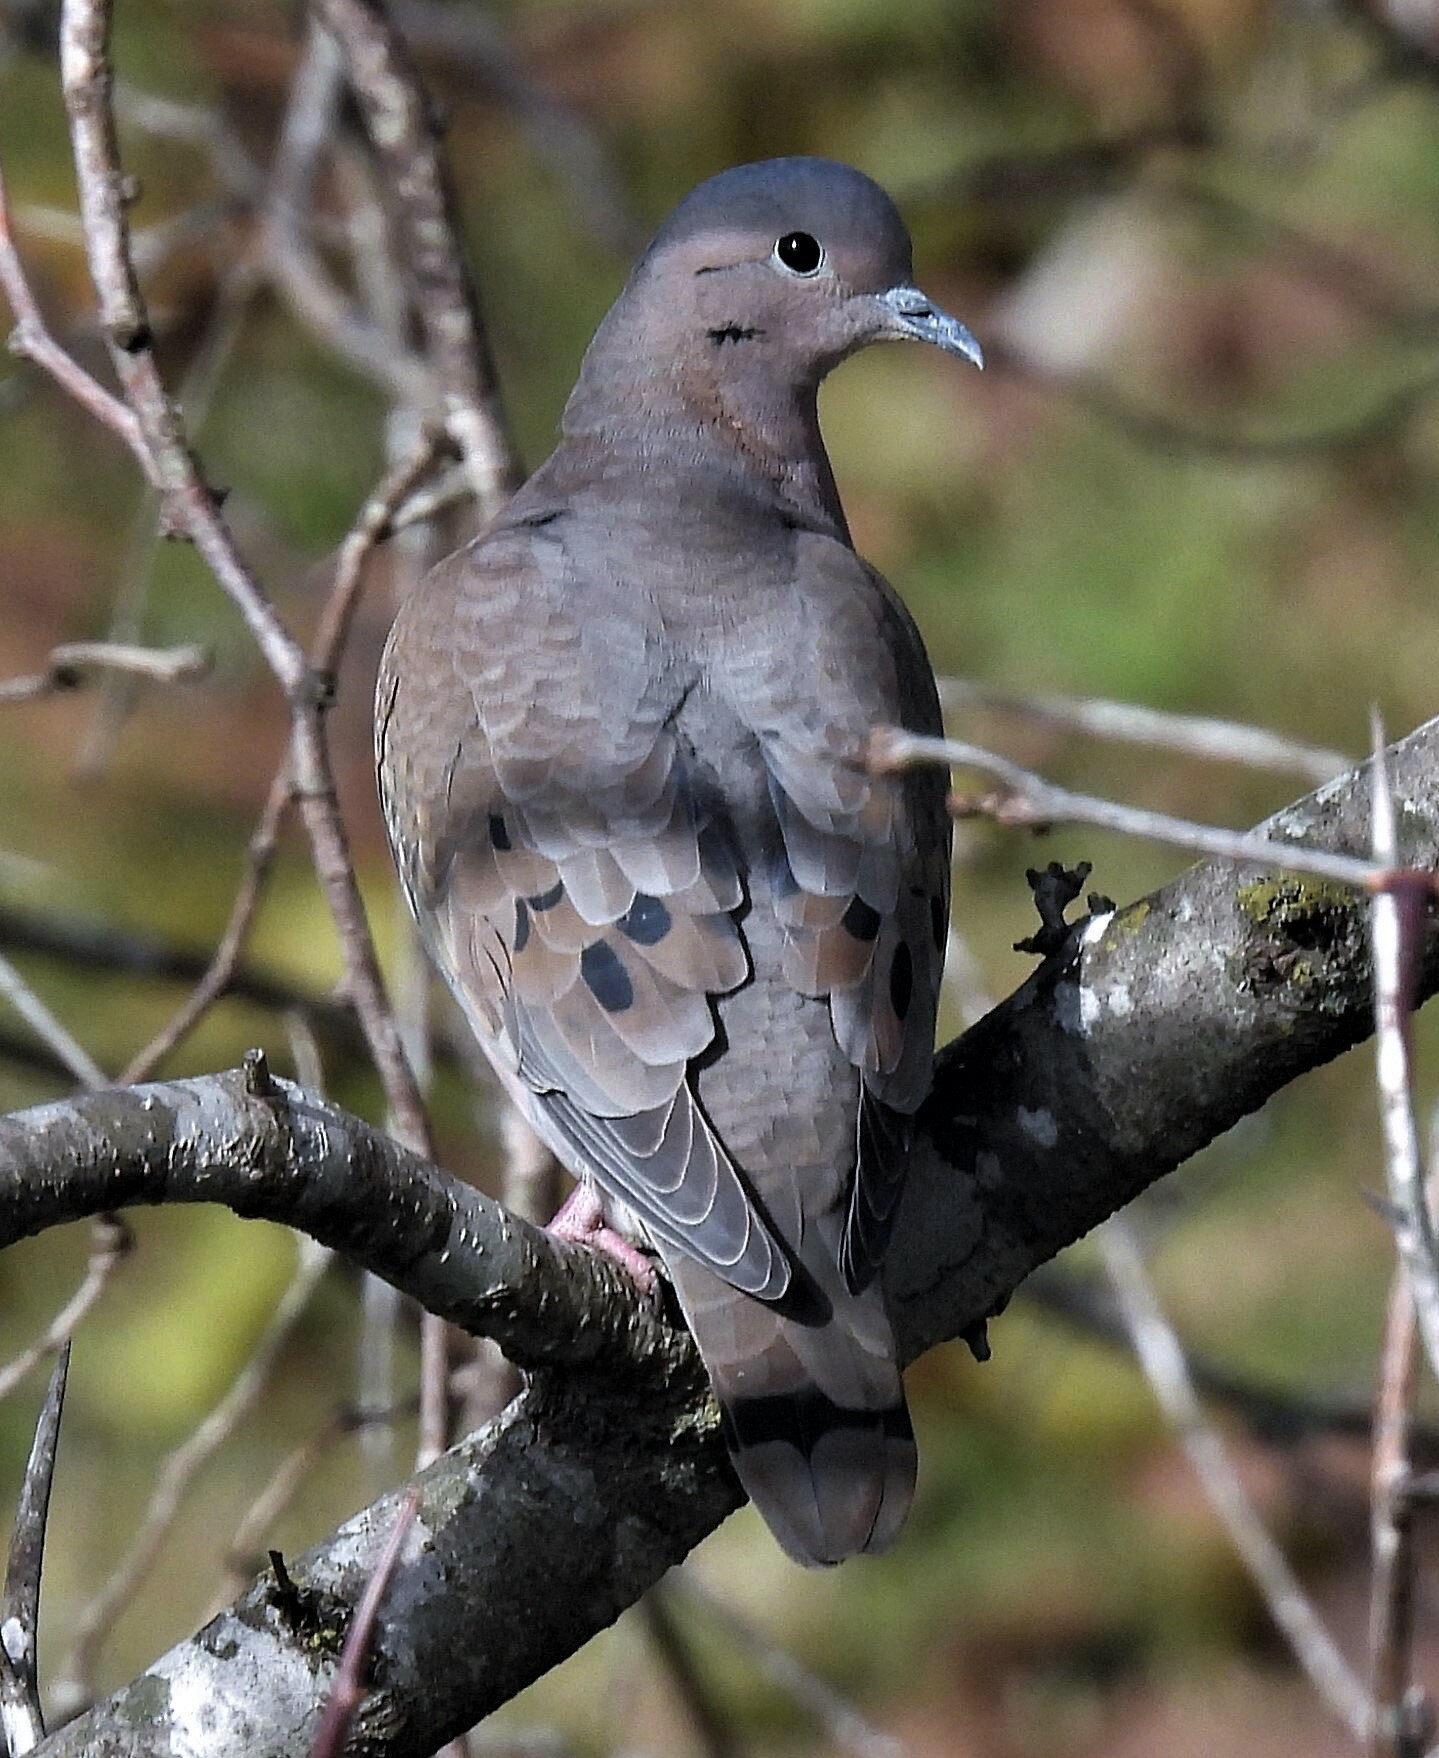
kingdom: Animalia
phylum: Chordata
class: Aves
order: Columbiformes
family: Columbidae
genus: Zenaida
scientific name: Zenaida auriculata
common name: Eared dove
